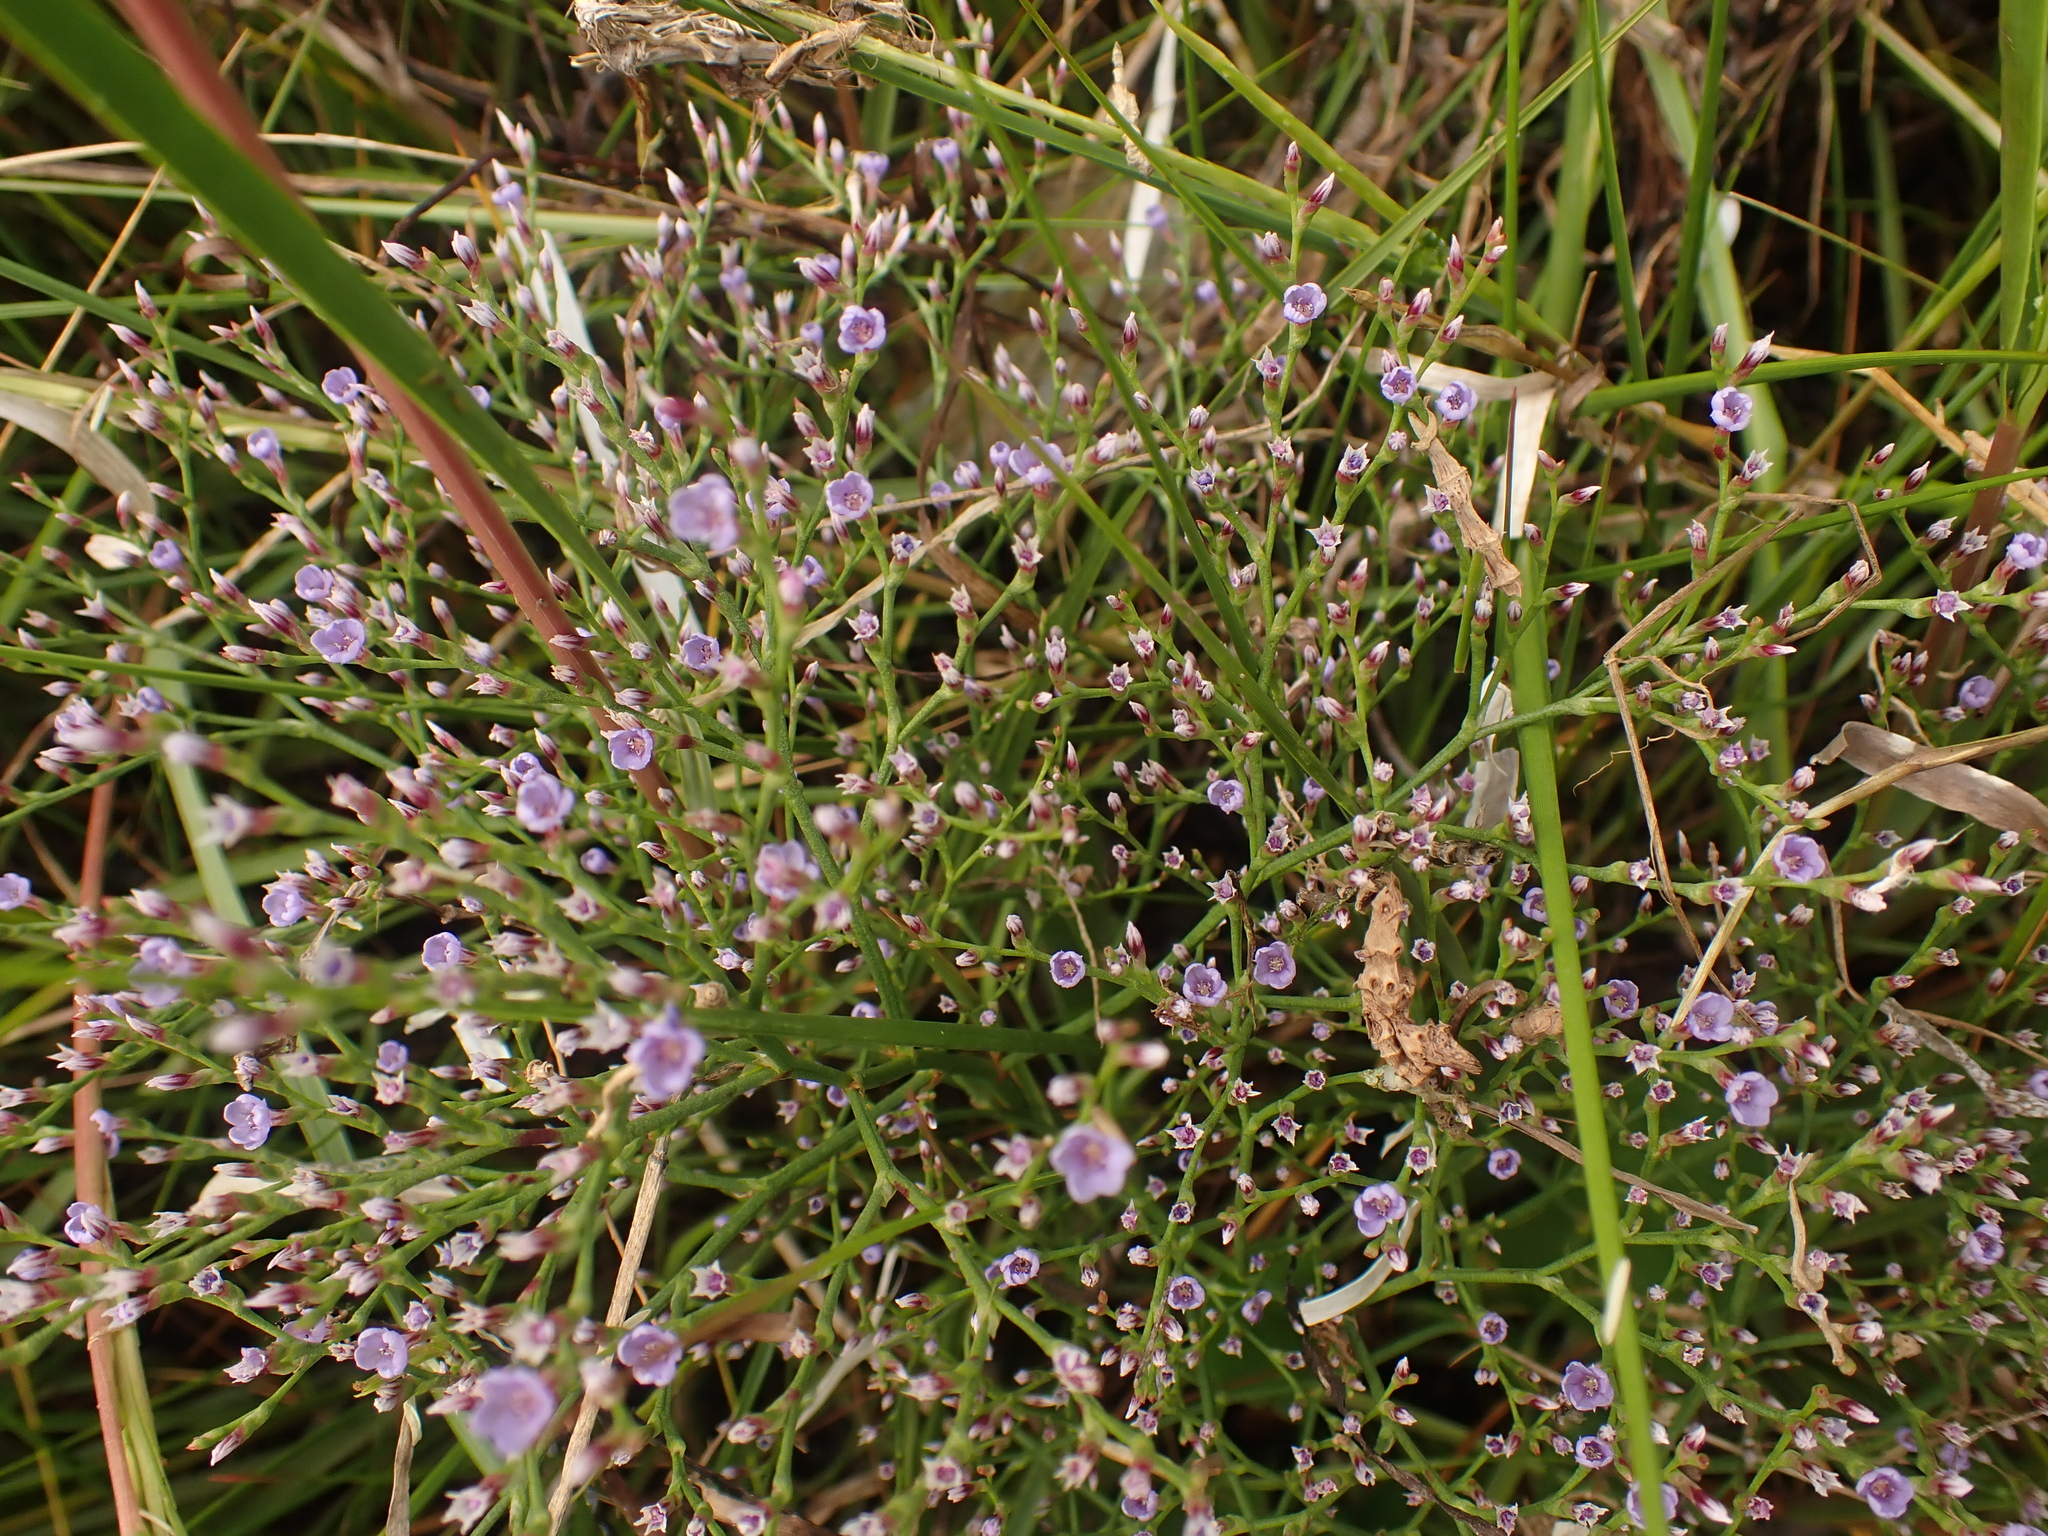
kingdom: Plantae
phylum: Tracheophyta
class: Magnoliopsida
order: Caryophyllales
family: Plumbaginaceae
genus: Limonium
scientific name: Limonium carolinianum
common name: Carolina sea lavender
